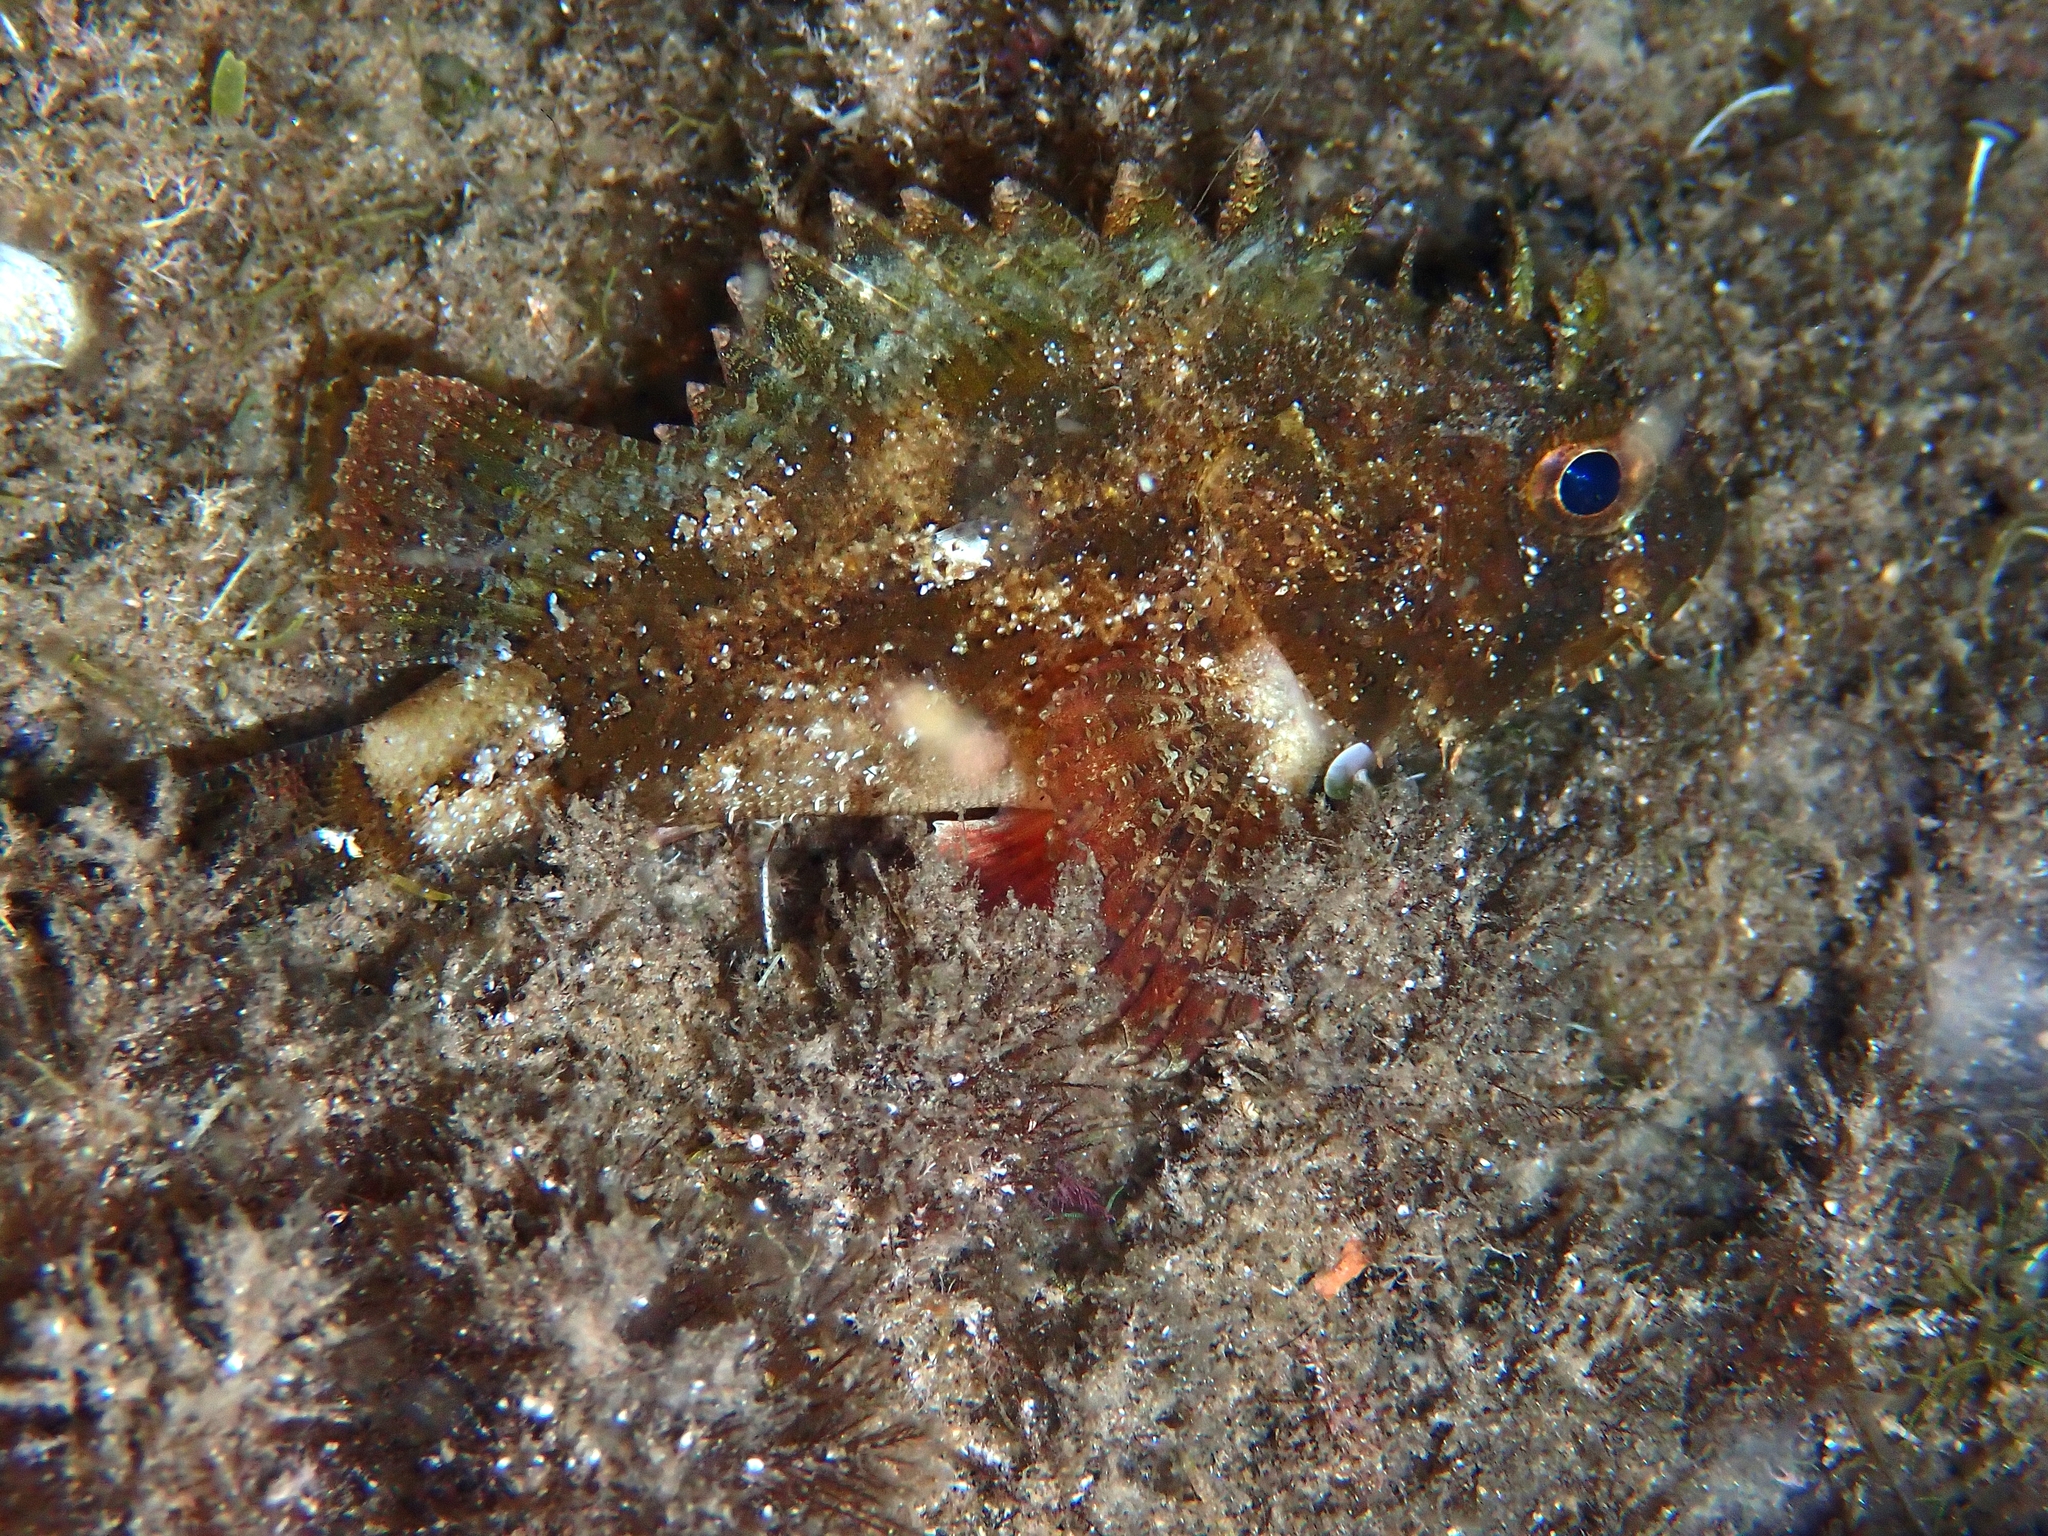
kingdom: Animalia
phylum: Chordata
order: Scorpaeniformes
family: Scorpaenidae
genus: Scorpaena
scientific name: Scorpaena porcus
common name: Black scorpionfish
